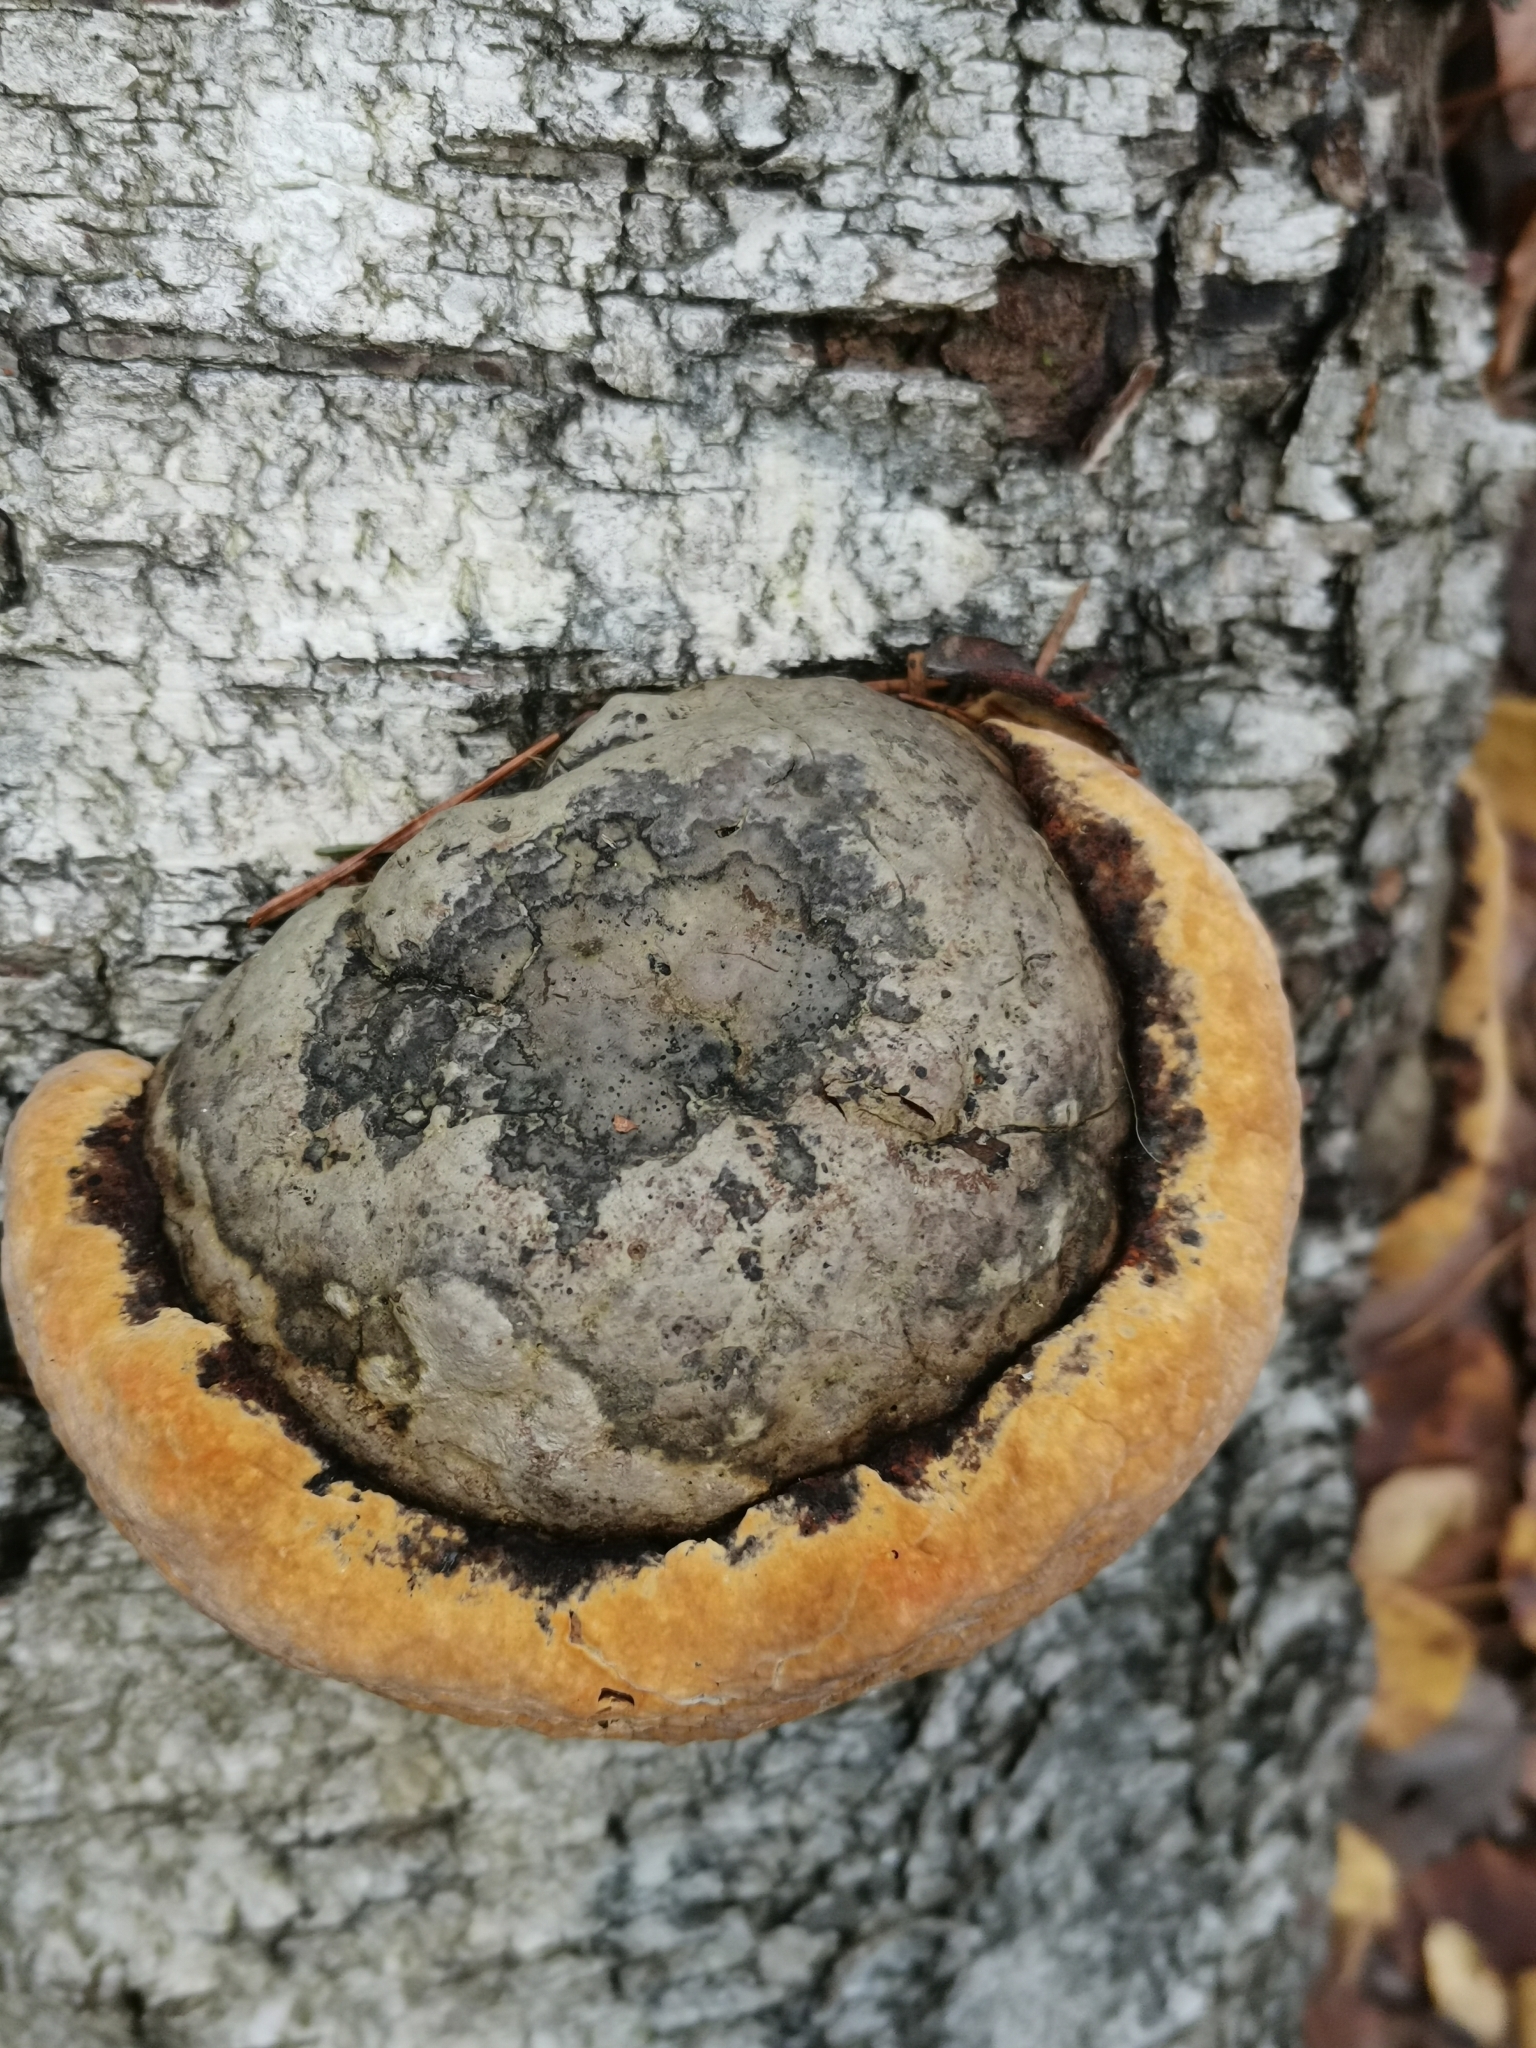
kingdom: Fungi
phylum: Basidiomycota
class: Agaricomycetes
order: Hymenochaetales
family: Hymenochaetaceae
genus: Phellinus
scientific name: Phellinus igniarius
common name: Willow bracket
